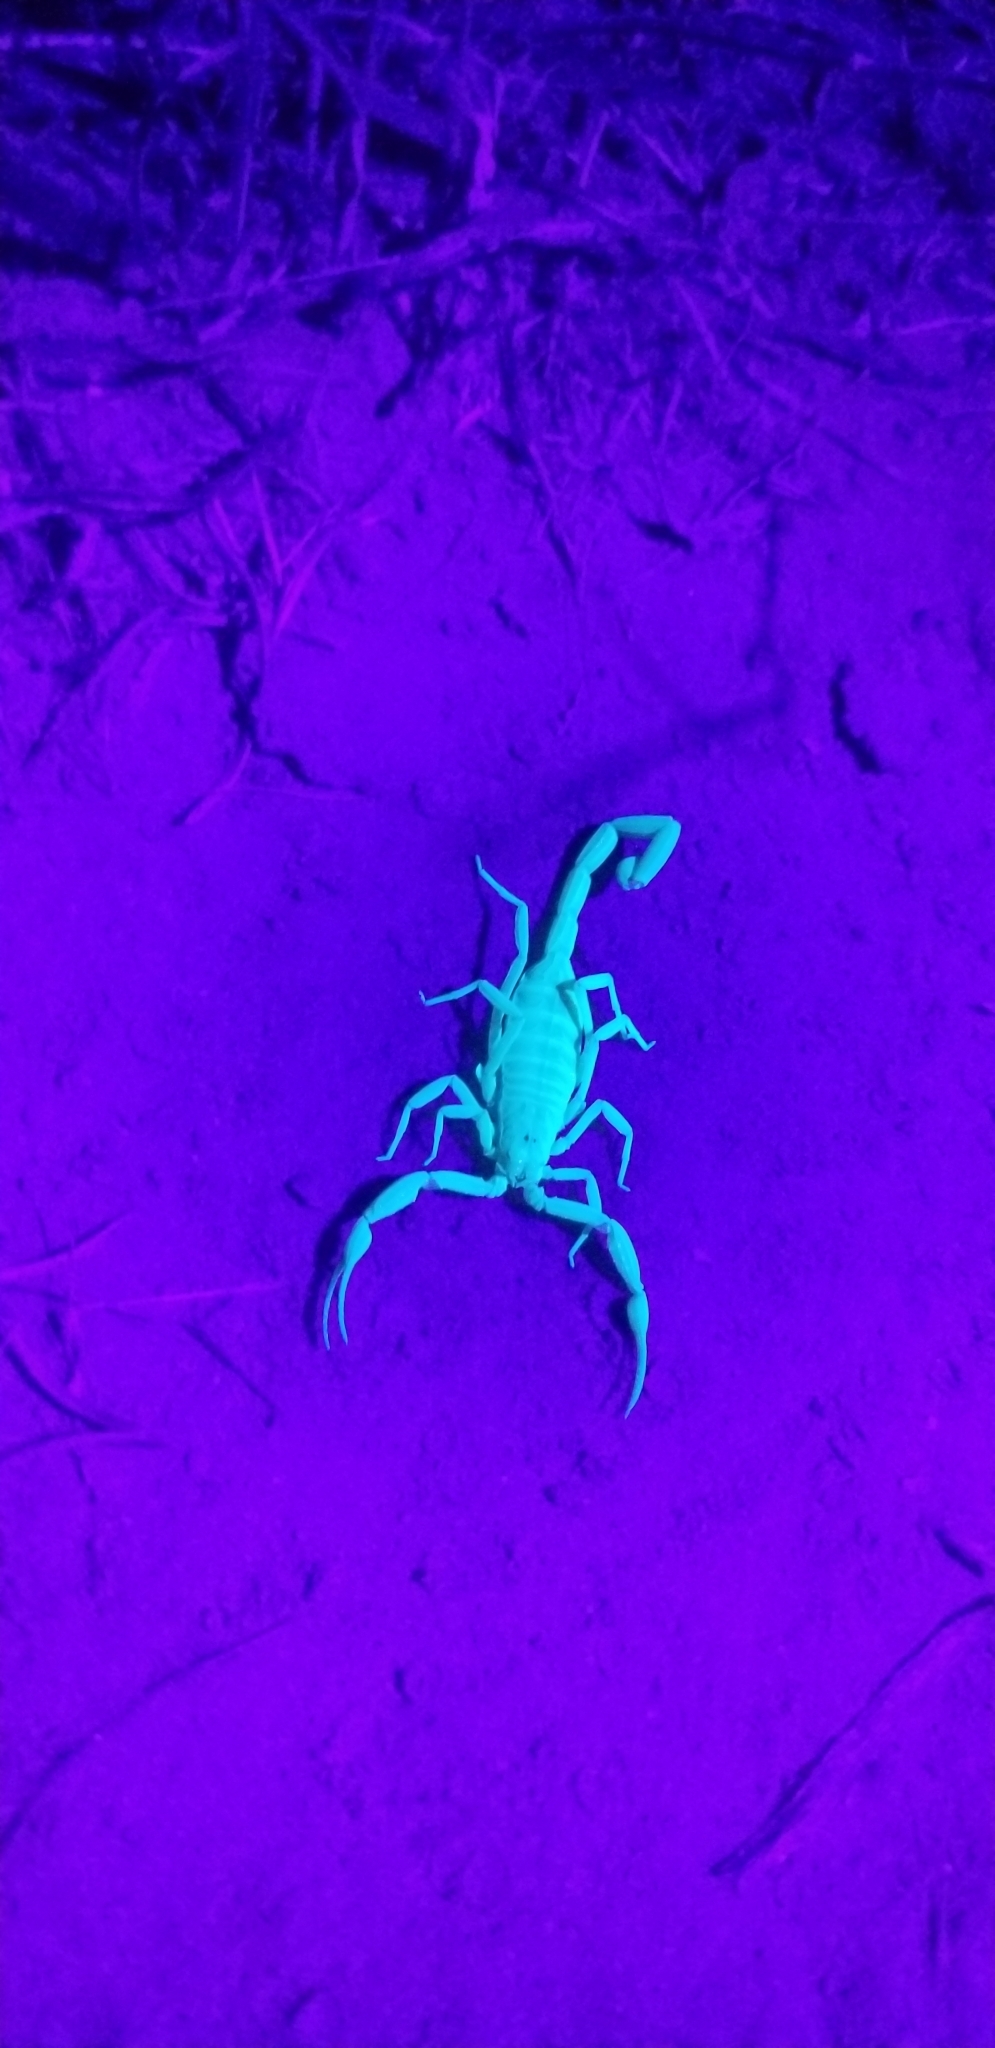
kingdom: Animalia
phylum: Arthropoda
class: Arachnida
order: Scorpiones
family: Buthidae
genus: Centruroides
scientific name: Centruroides sculpturatus
